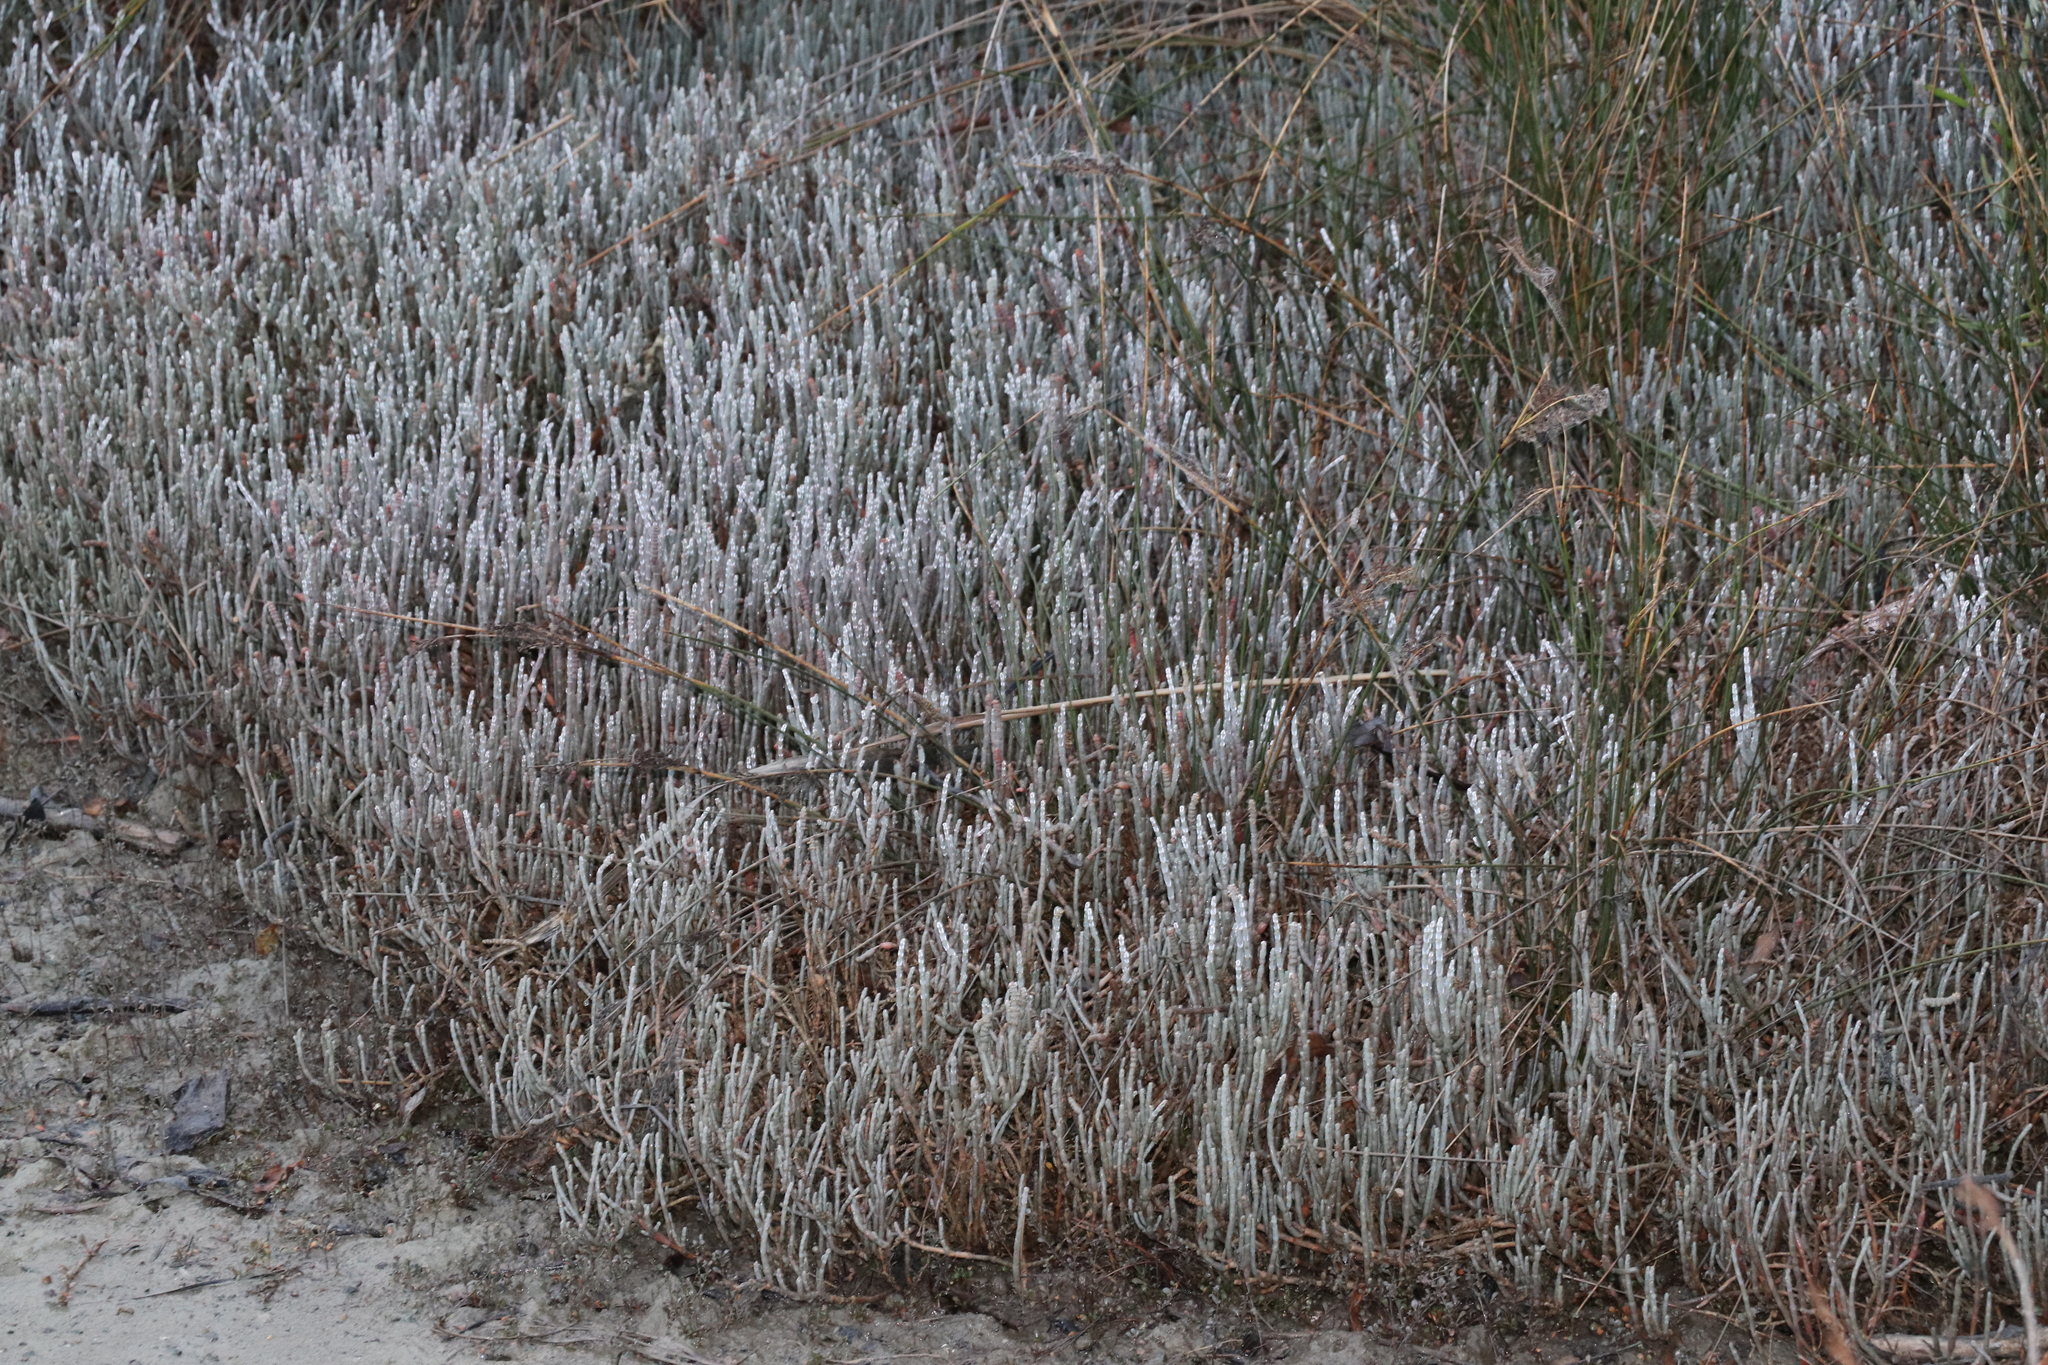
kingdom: Plantae
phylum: Tracheophyta
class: Magnoliopsida
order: Caryophyllales
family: Amaranthaceae
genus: Salicornia
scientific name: Salicornia quinqueflora
